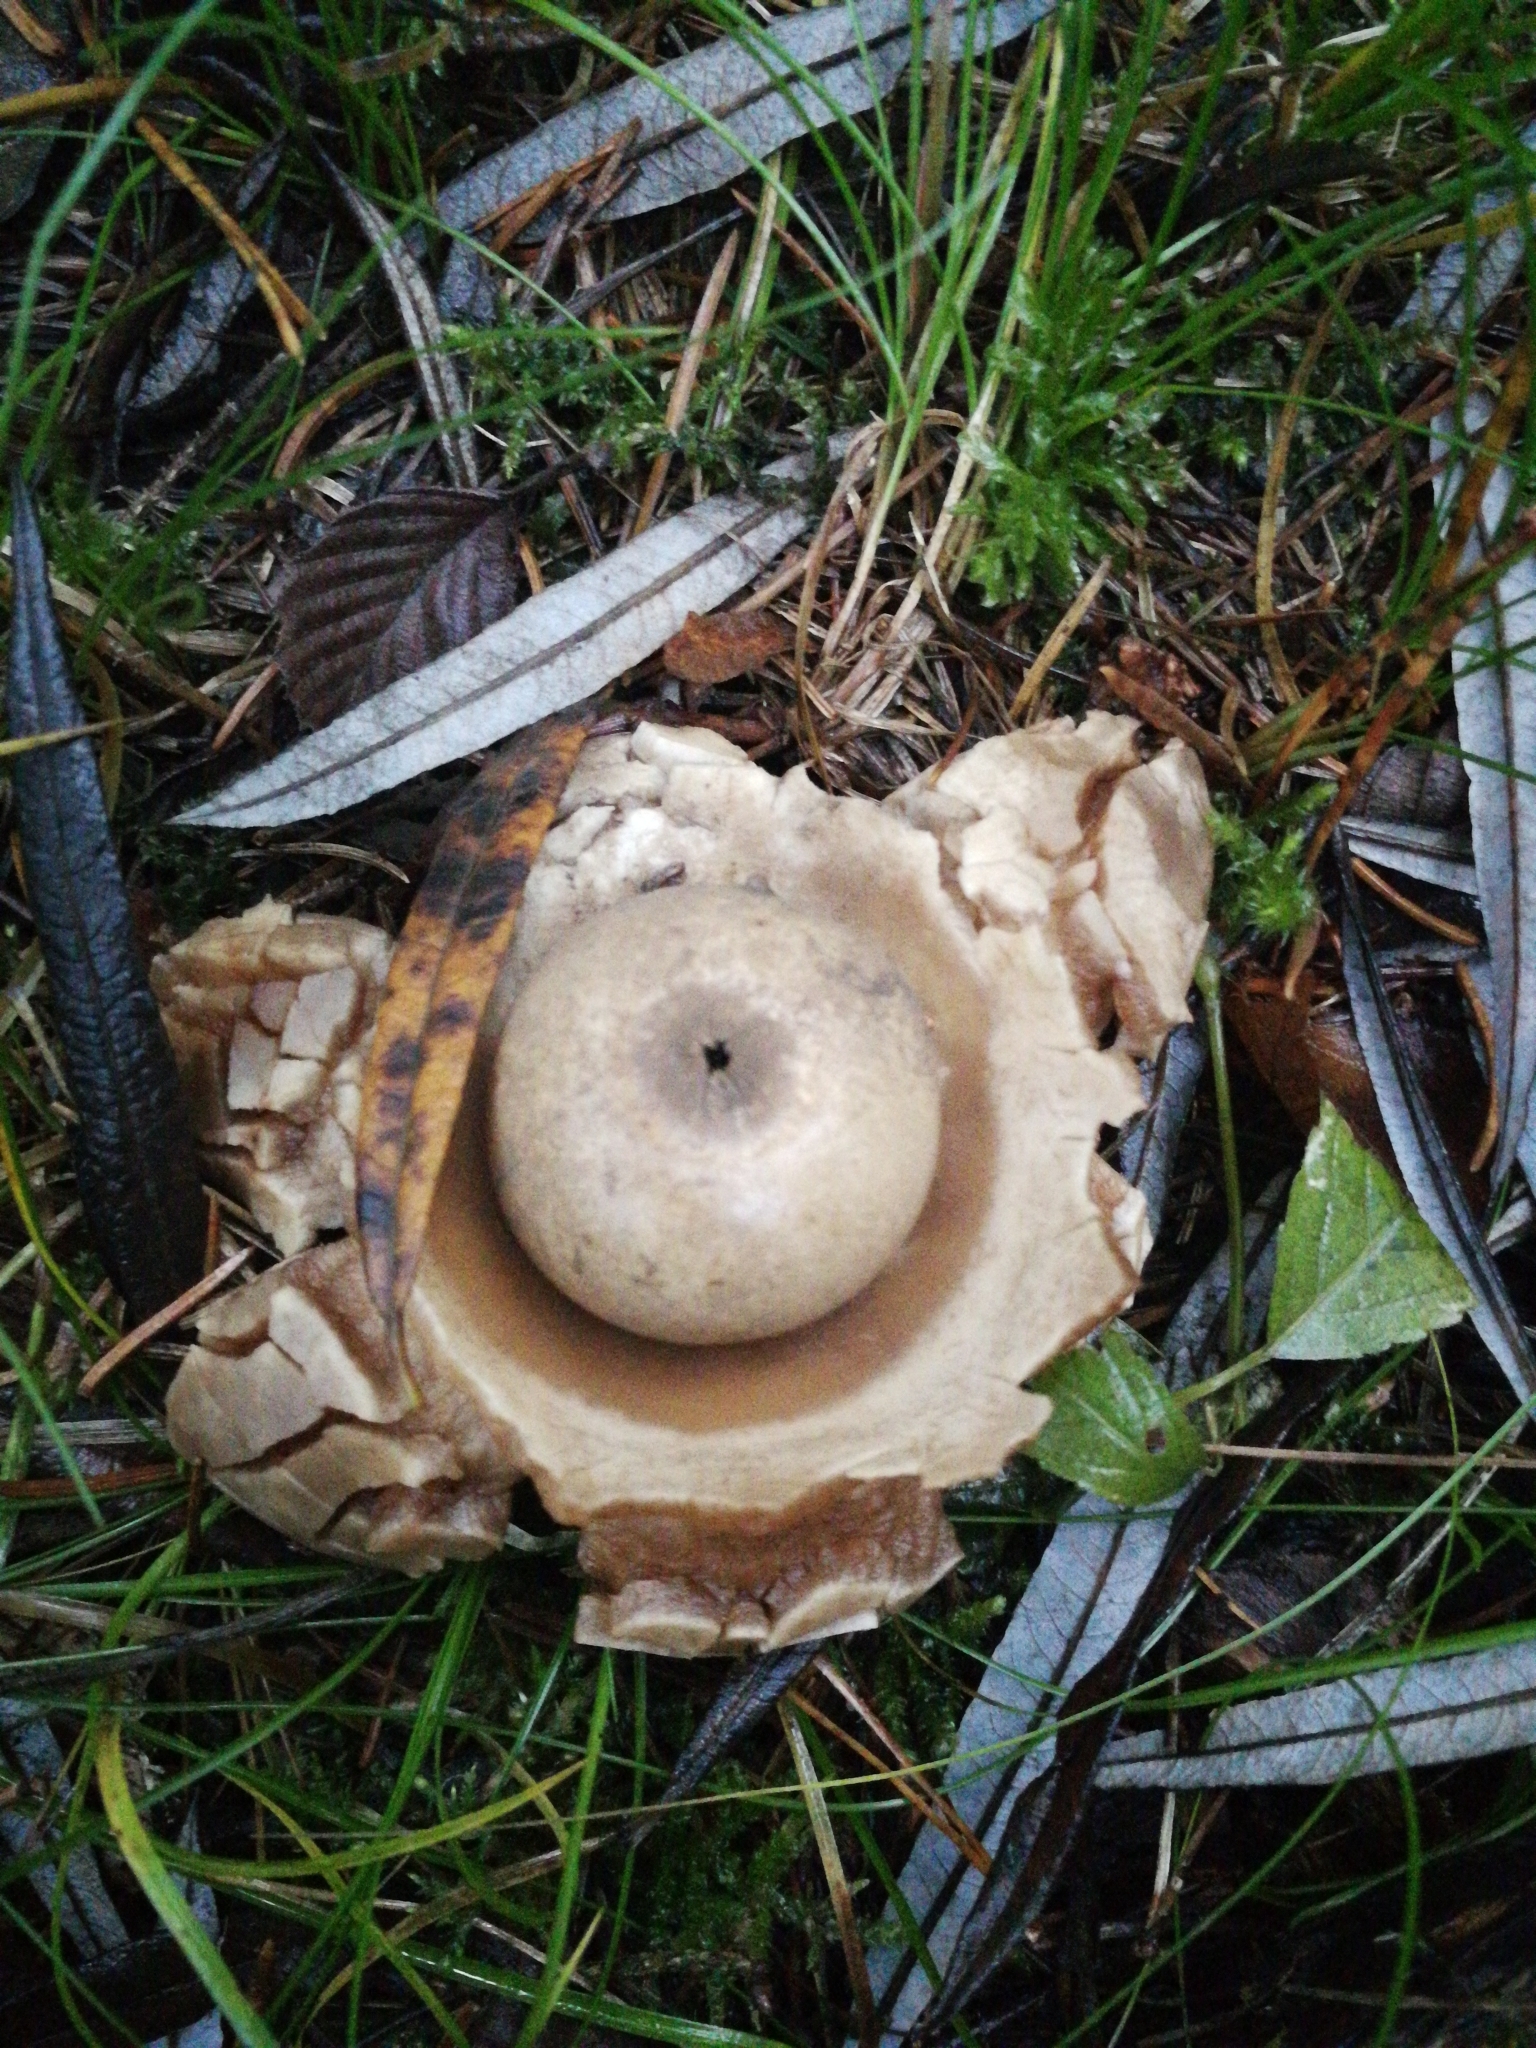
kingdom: Fungi
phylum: Basidiomycota
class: Agaricomycetes
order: Geastrales
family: Geastraceae
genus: Geastrum
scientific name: Geastrum triplex
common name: Collared earthstar
